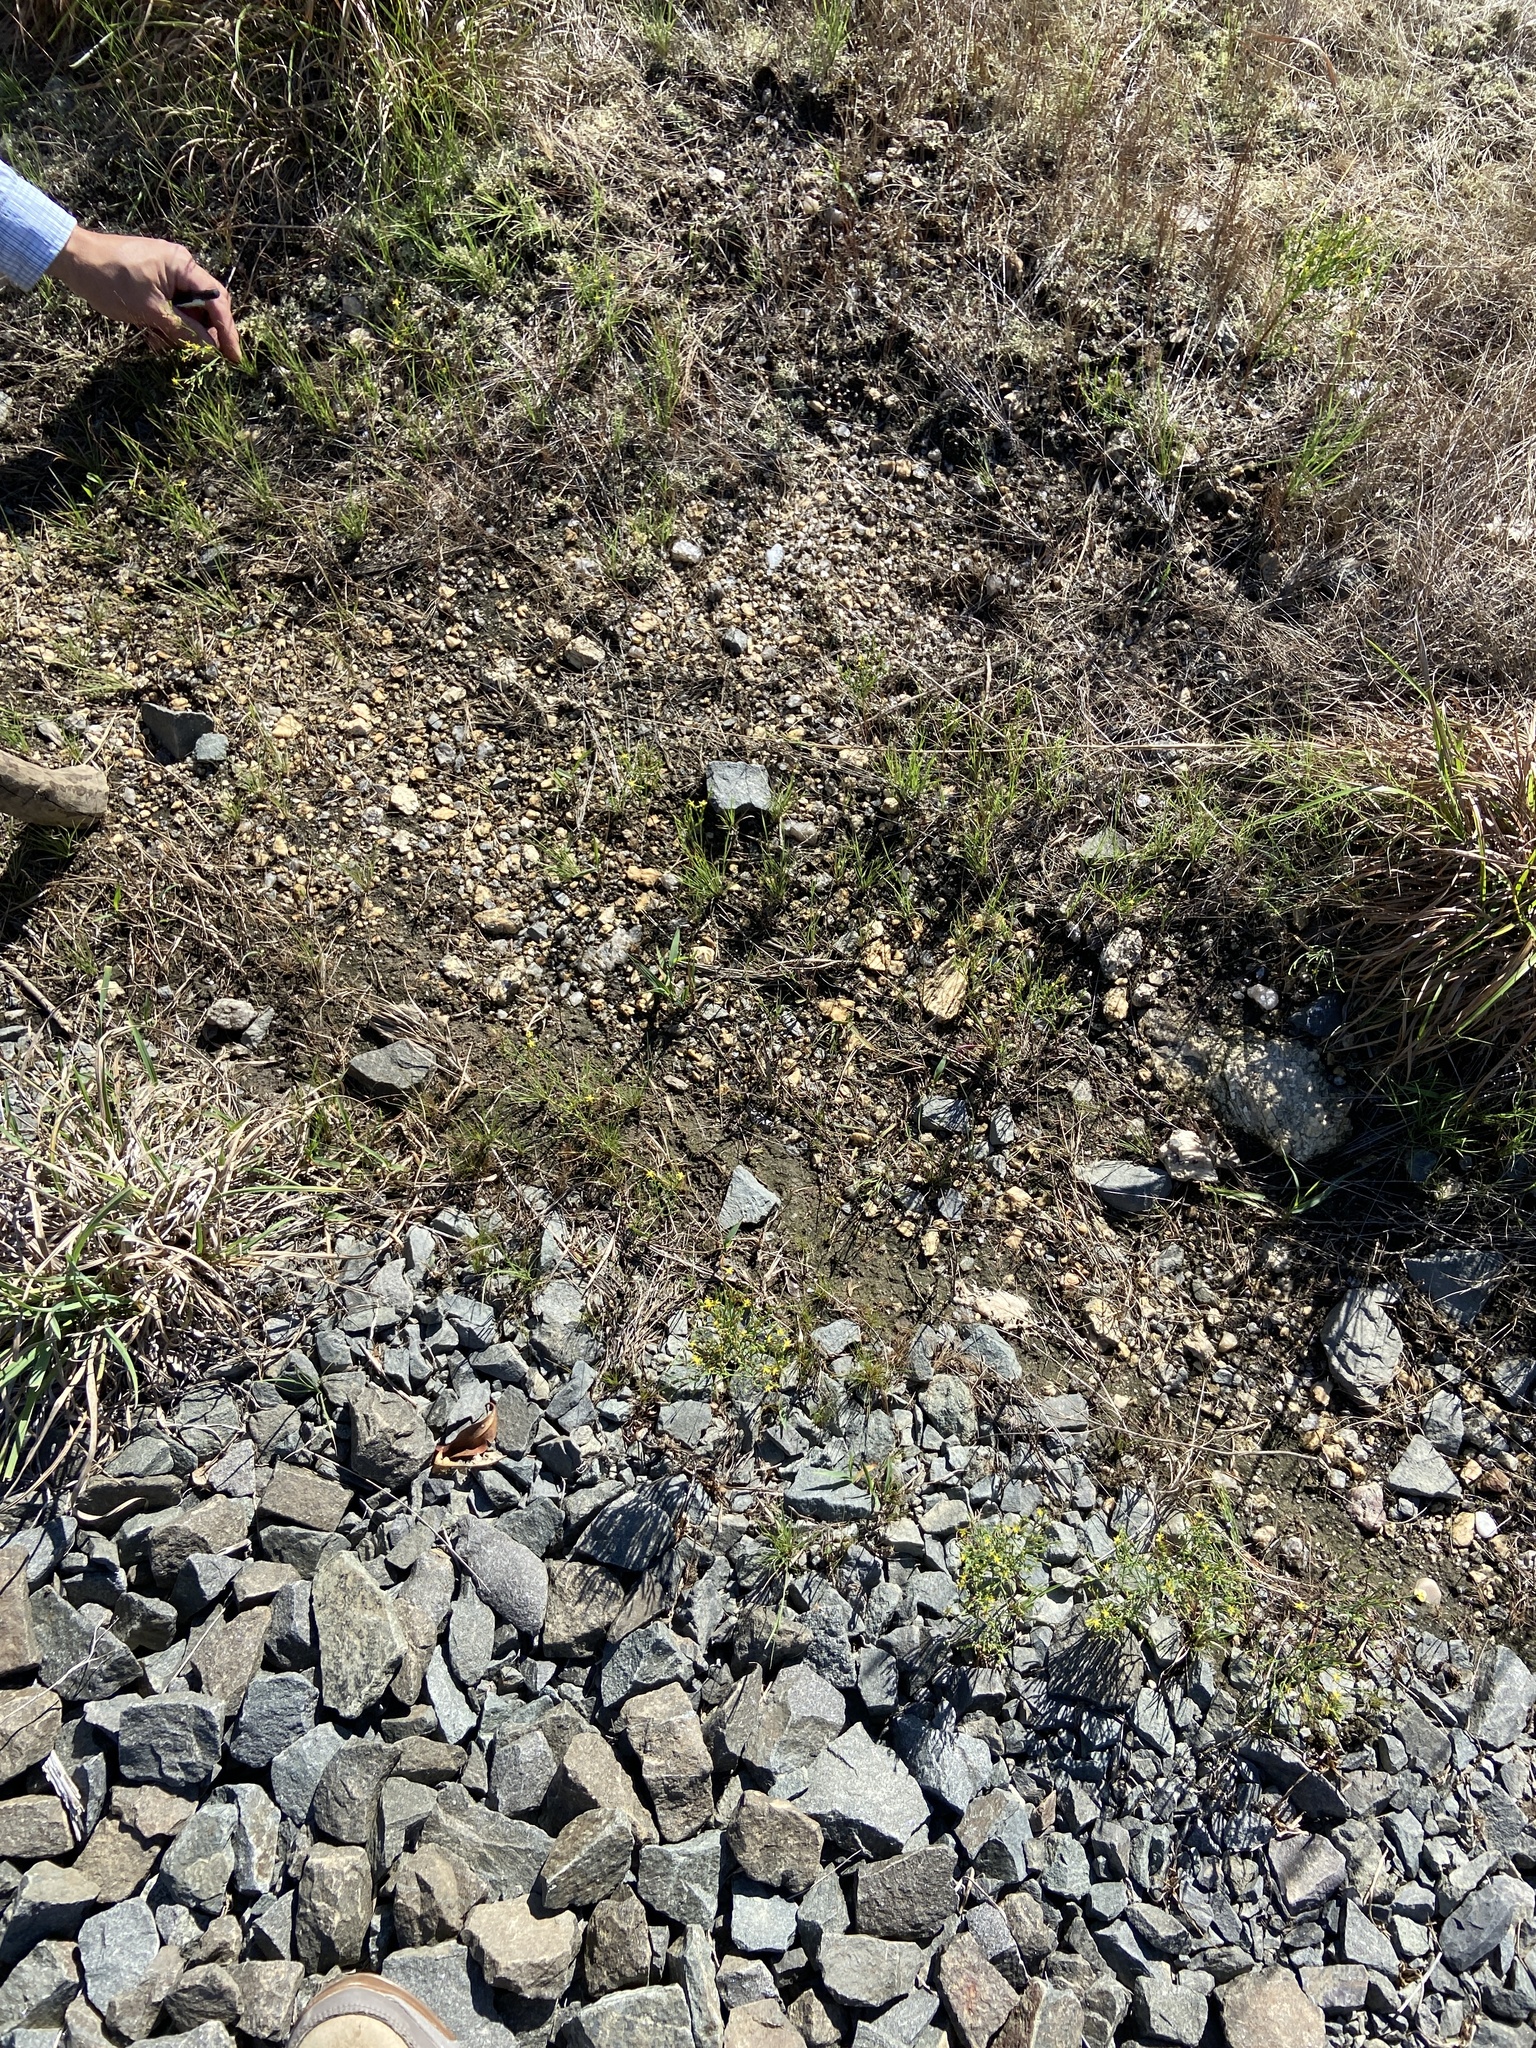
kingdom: Plantae
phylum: Tracheophyta
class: Magnoliopsida
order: Malpighiales
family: Hypericaceae
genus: Hypericum
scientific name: Hypericum gentianoides
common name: Gentian-leaved st. john's-wort
